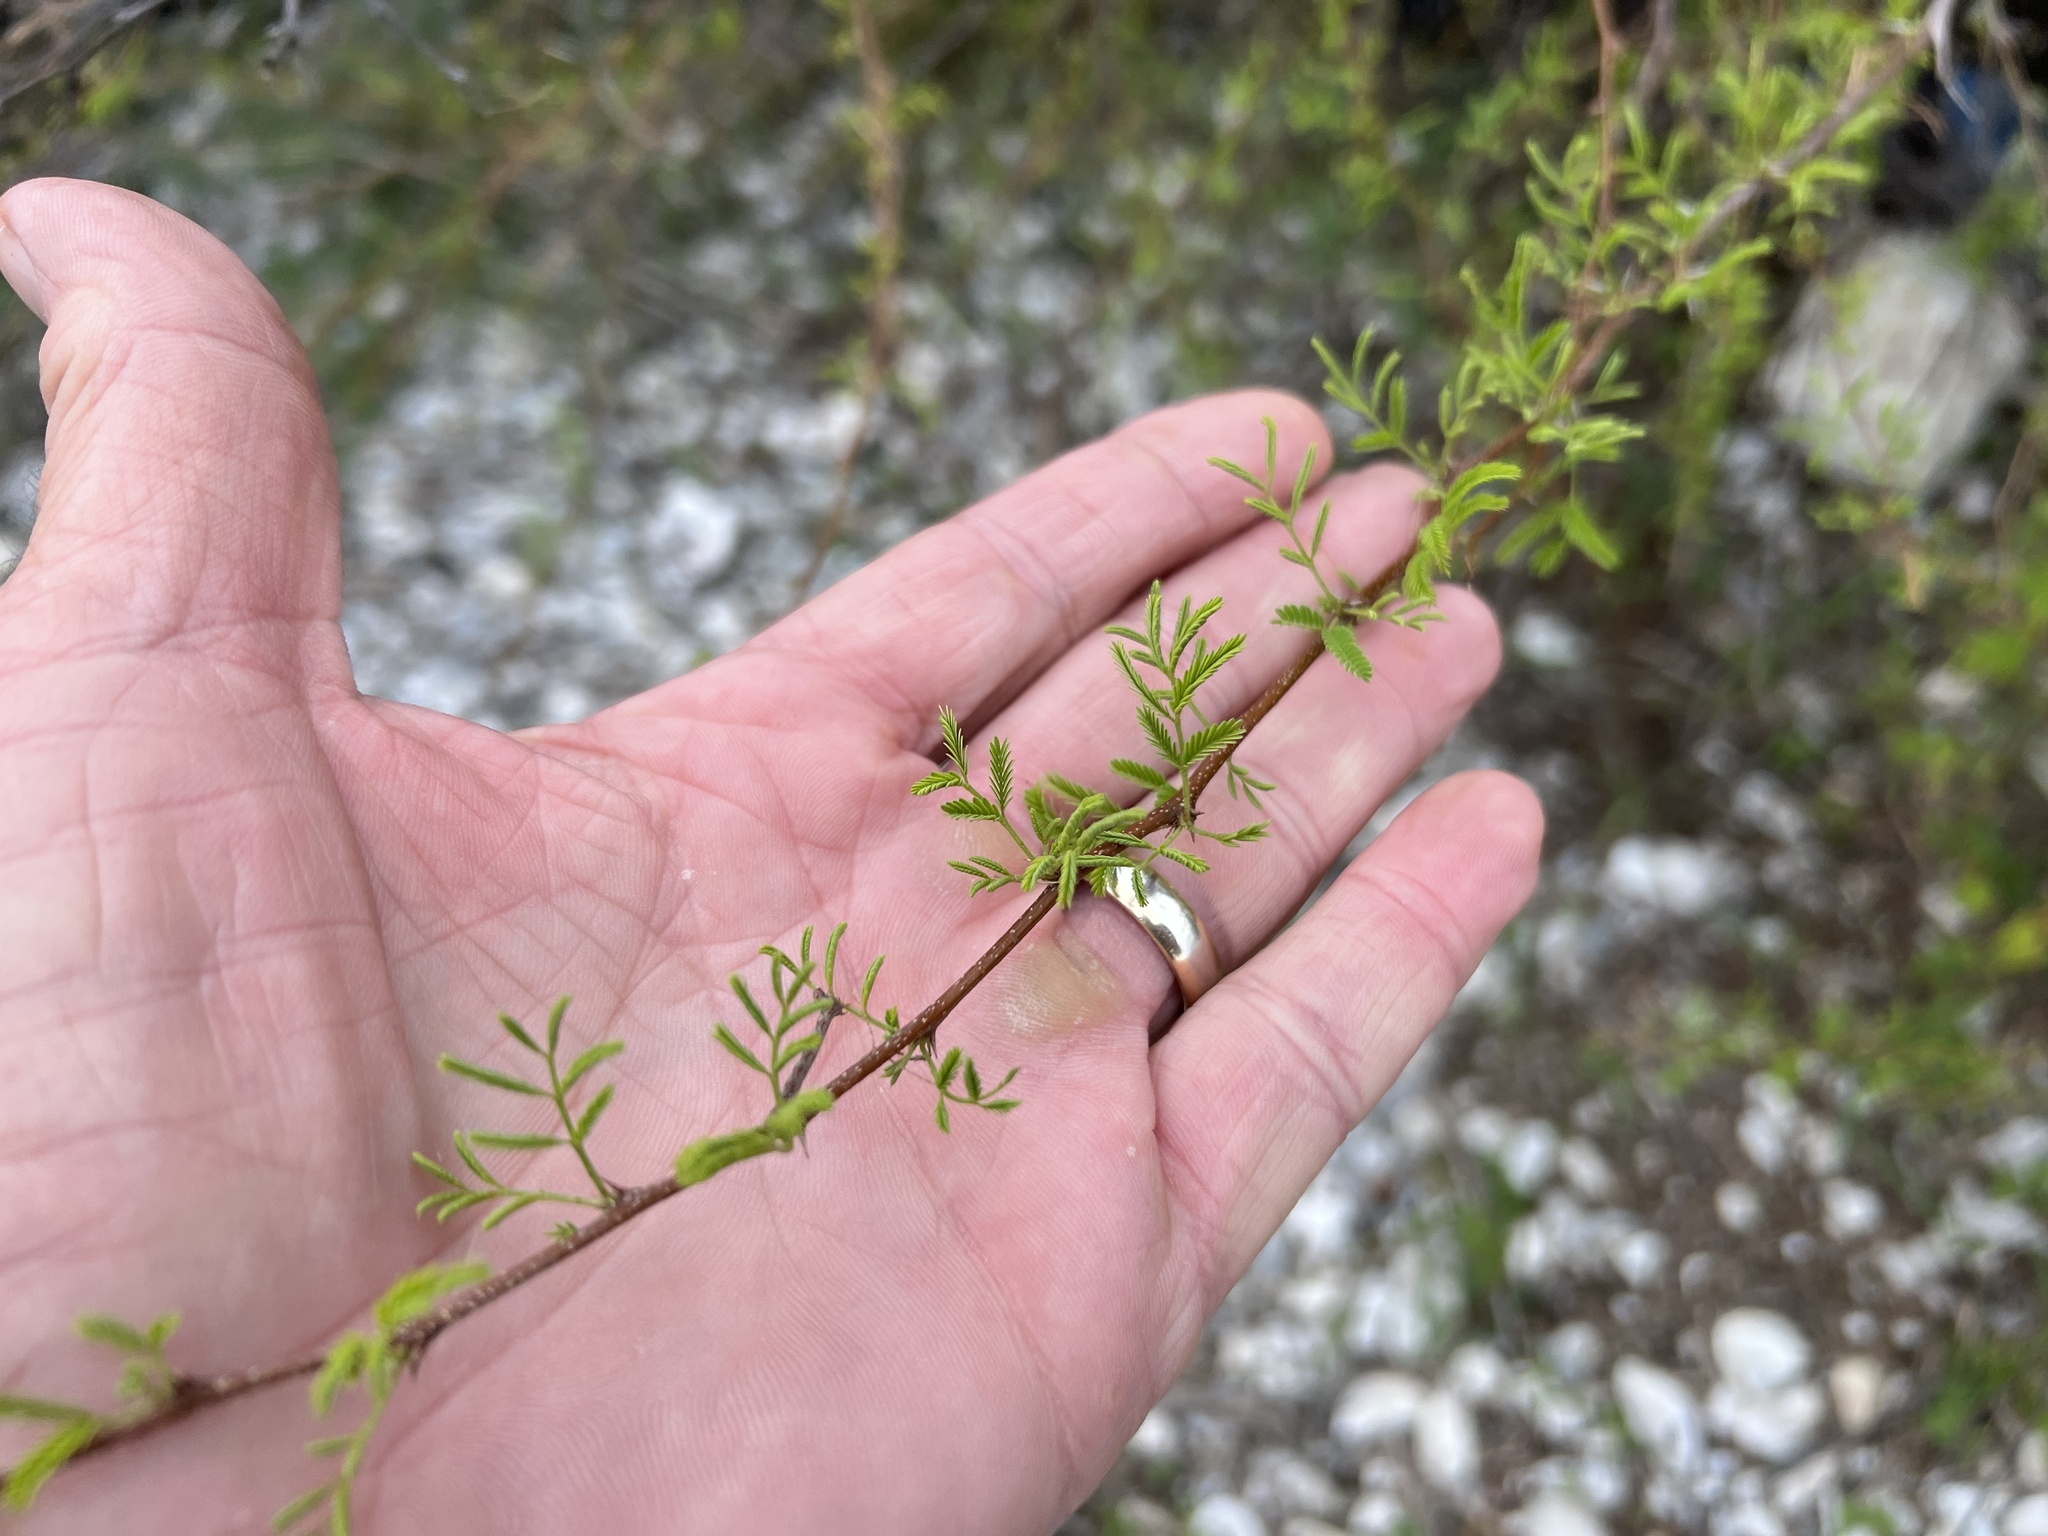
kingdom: Plantae
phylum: Tracheophyta
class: Magnoliopsida
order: Fabales
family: Fabaceae
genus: Vachellia
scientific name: Vachellia farnesiana
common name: Sweet acacia
